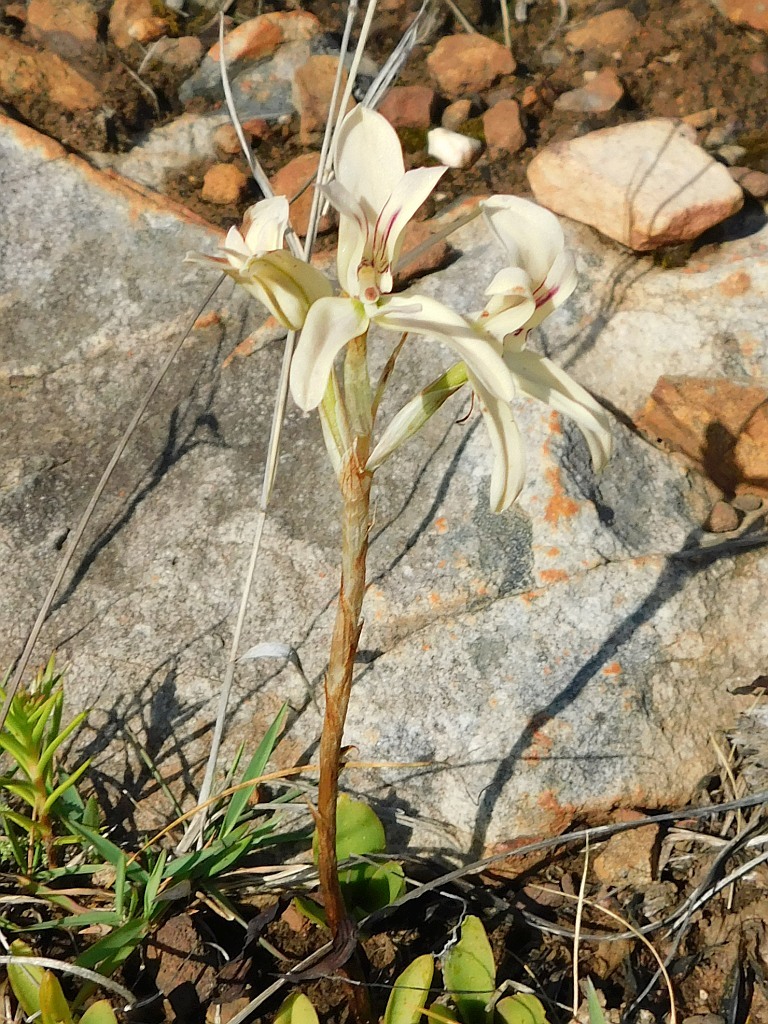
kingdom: Plantae
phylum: Tracheophyta
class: Liliopsida
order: Asparagales
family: Orchidaceae
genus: Disa
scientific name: Disa harveyana
